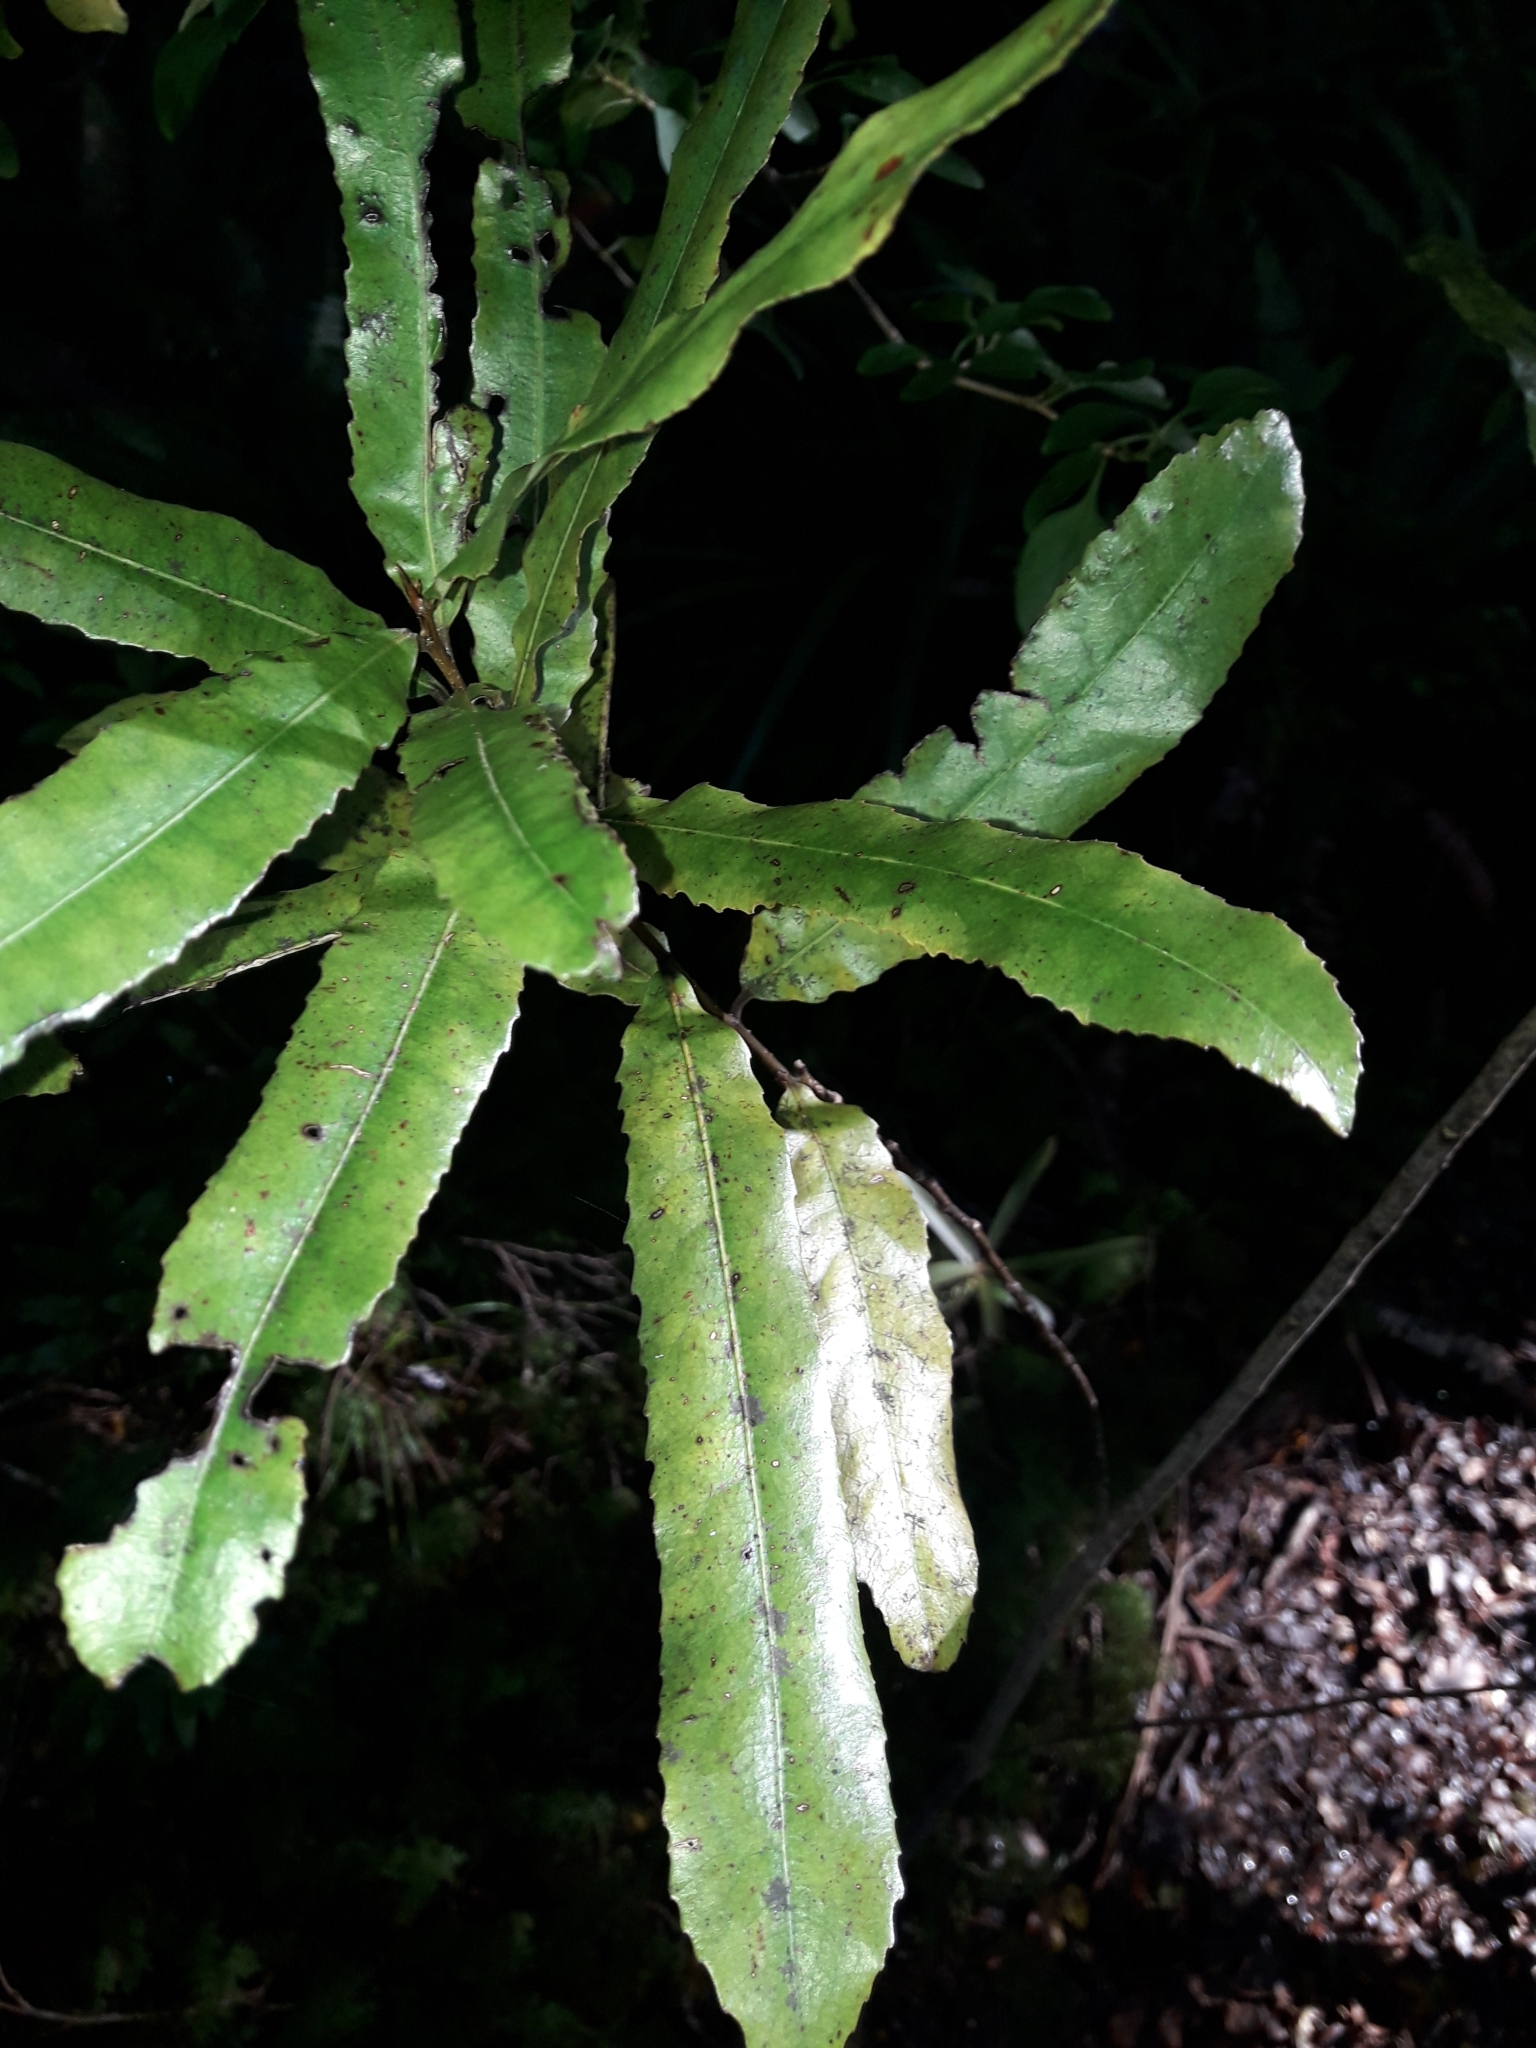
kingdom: Plantae
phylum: Tracheophyta
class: Magnoliopsida
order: Oxalidales
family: Elaeocarpaceae
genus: Elaeocarpus
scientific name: Elaeocarpus dentatus
